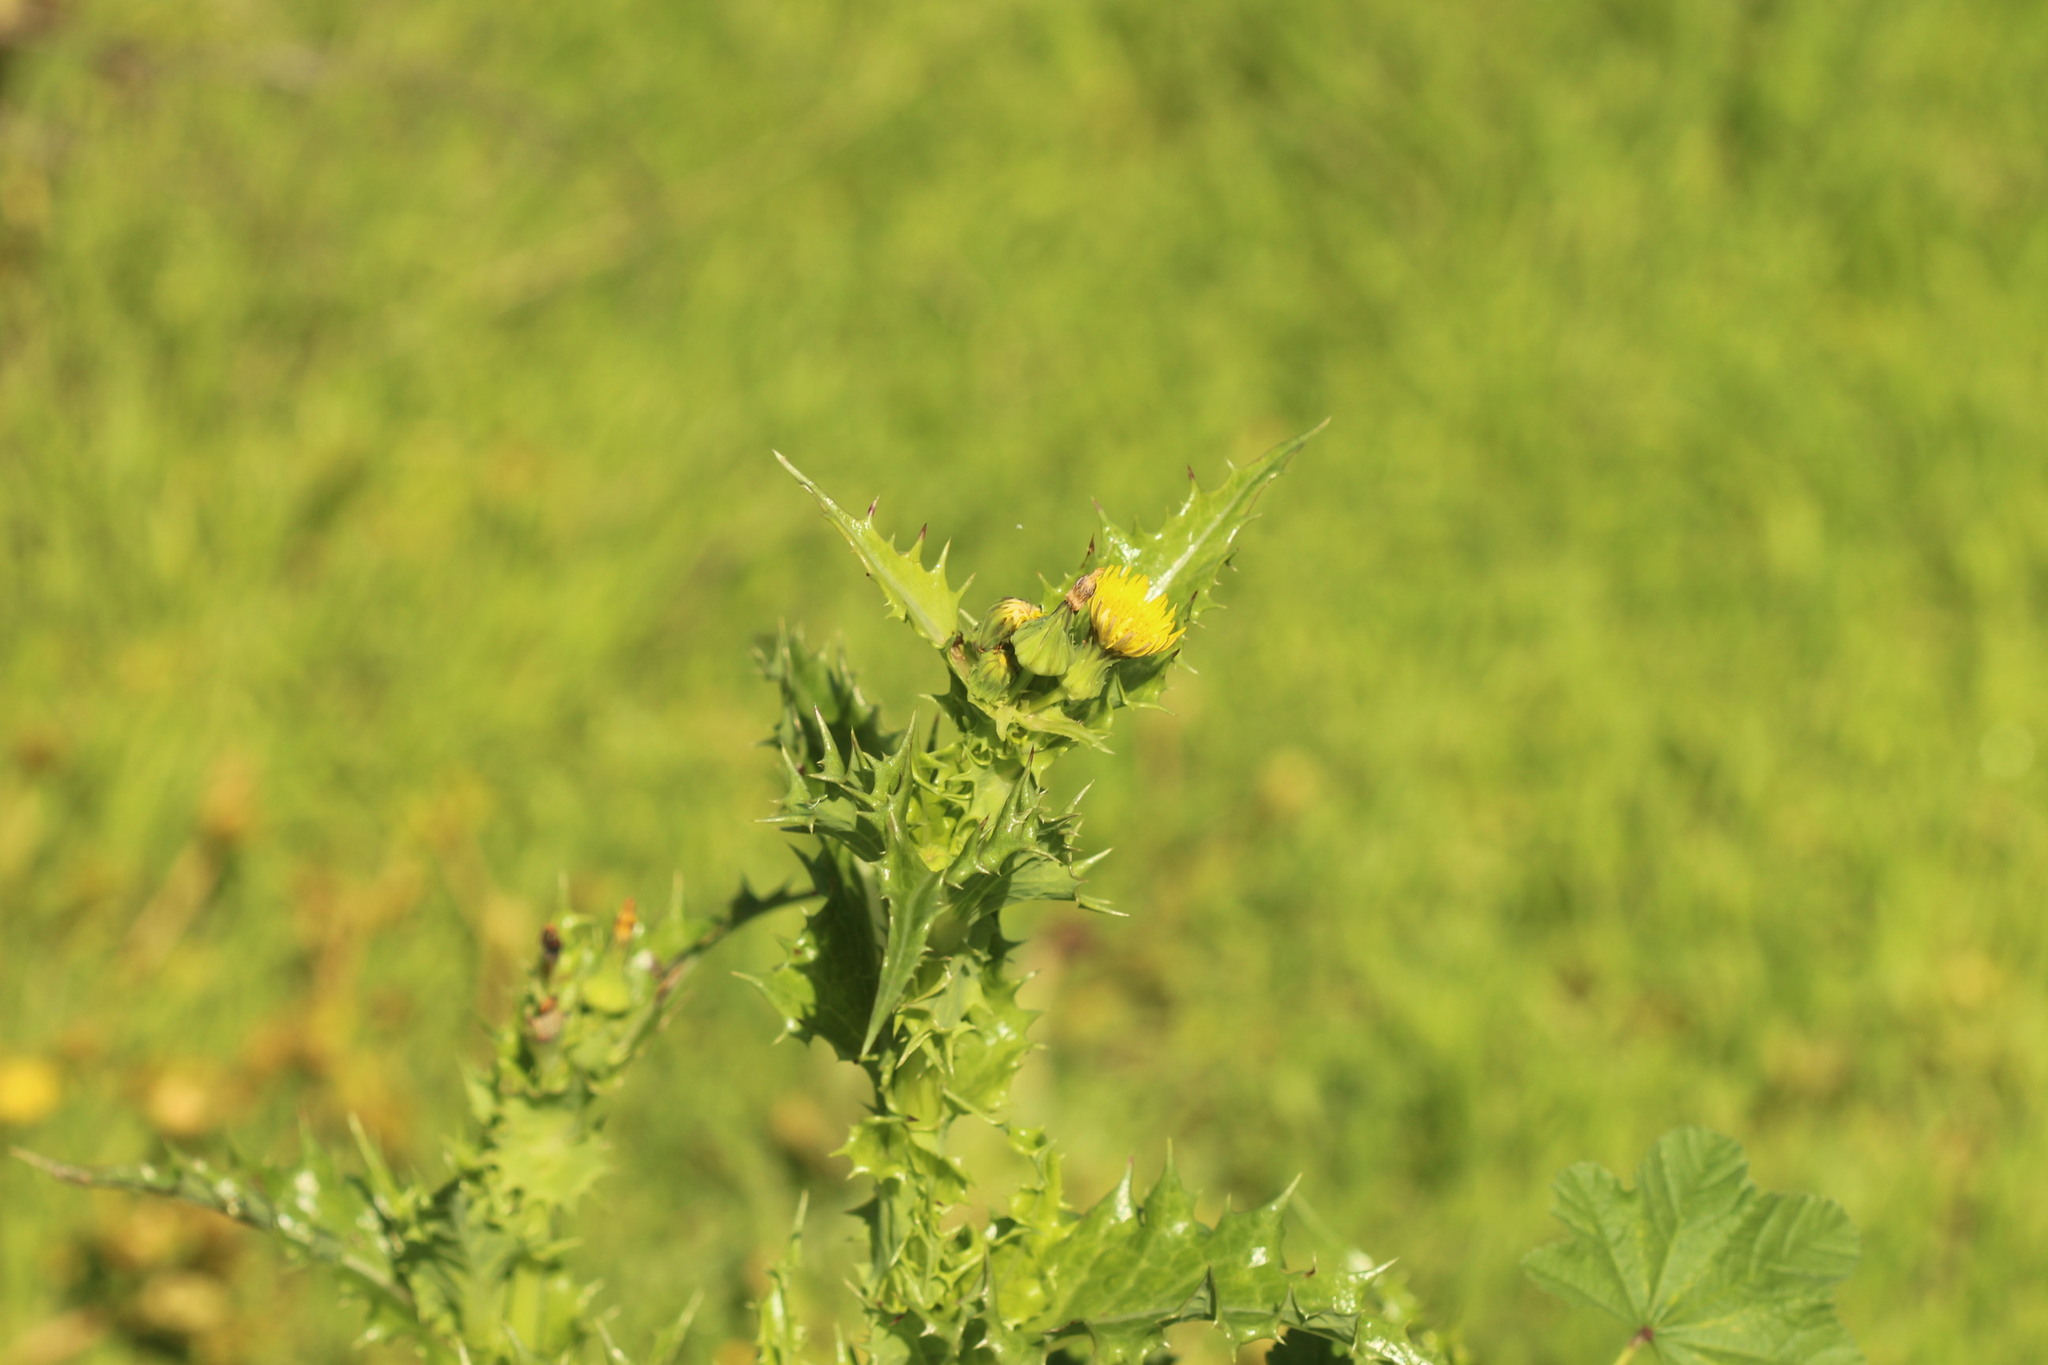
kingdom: Plantae
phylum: Tracheophyta
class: Magnoliopsida
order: Asterales
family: Asteraceae
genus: Sonchus
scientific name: Sonchus asper
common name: Prickly sow-thistle
